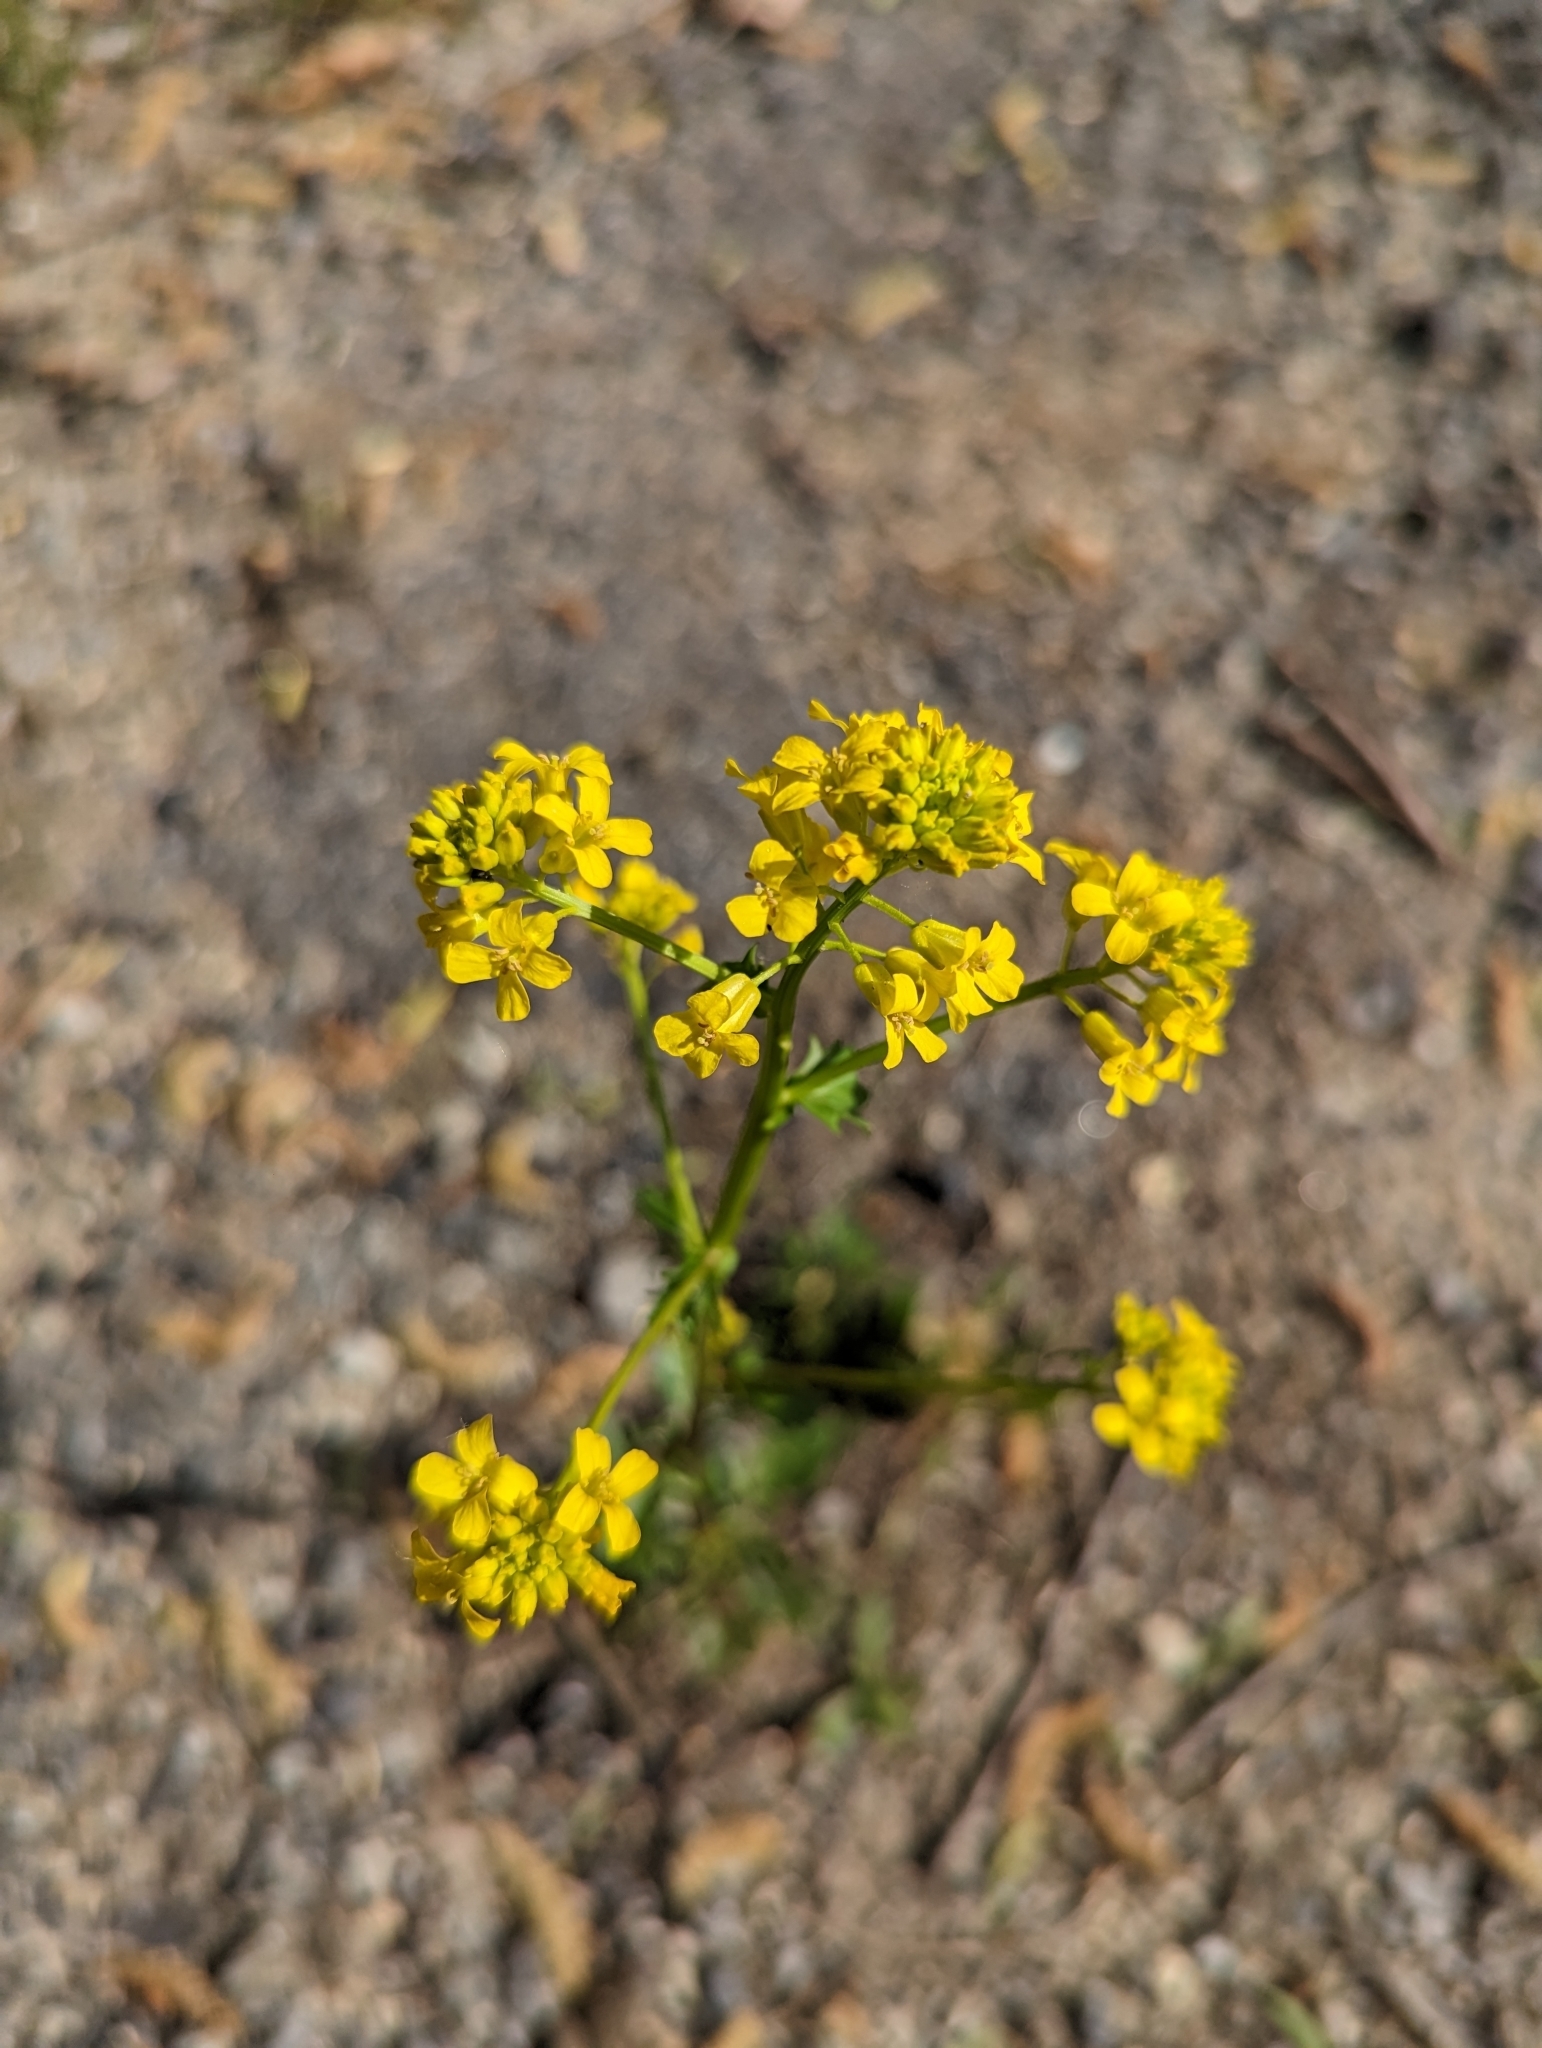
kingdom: Plantae
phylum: Tracheophyta
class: Magnoliopsida
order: Brassicales
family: Brassicaceae
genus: Barbarea
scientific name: Barbarea vulgaris
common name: Cressy-greens
